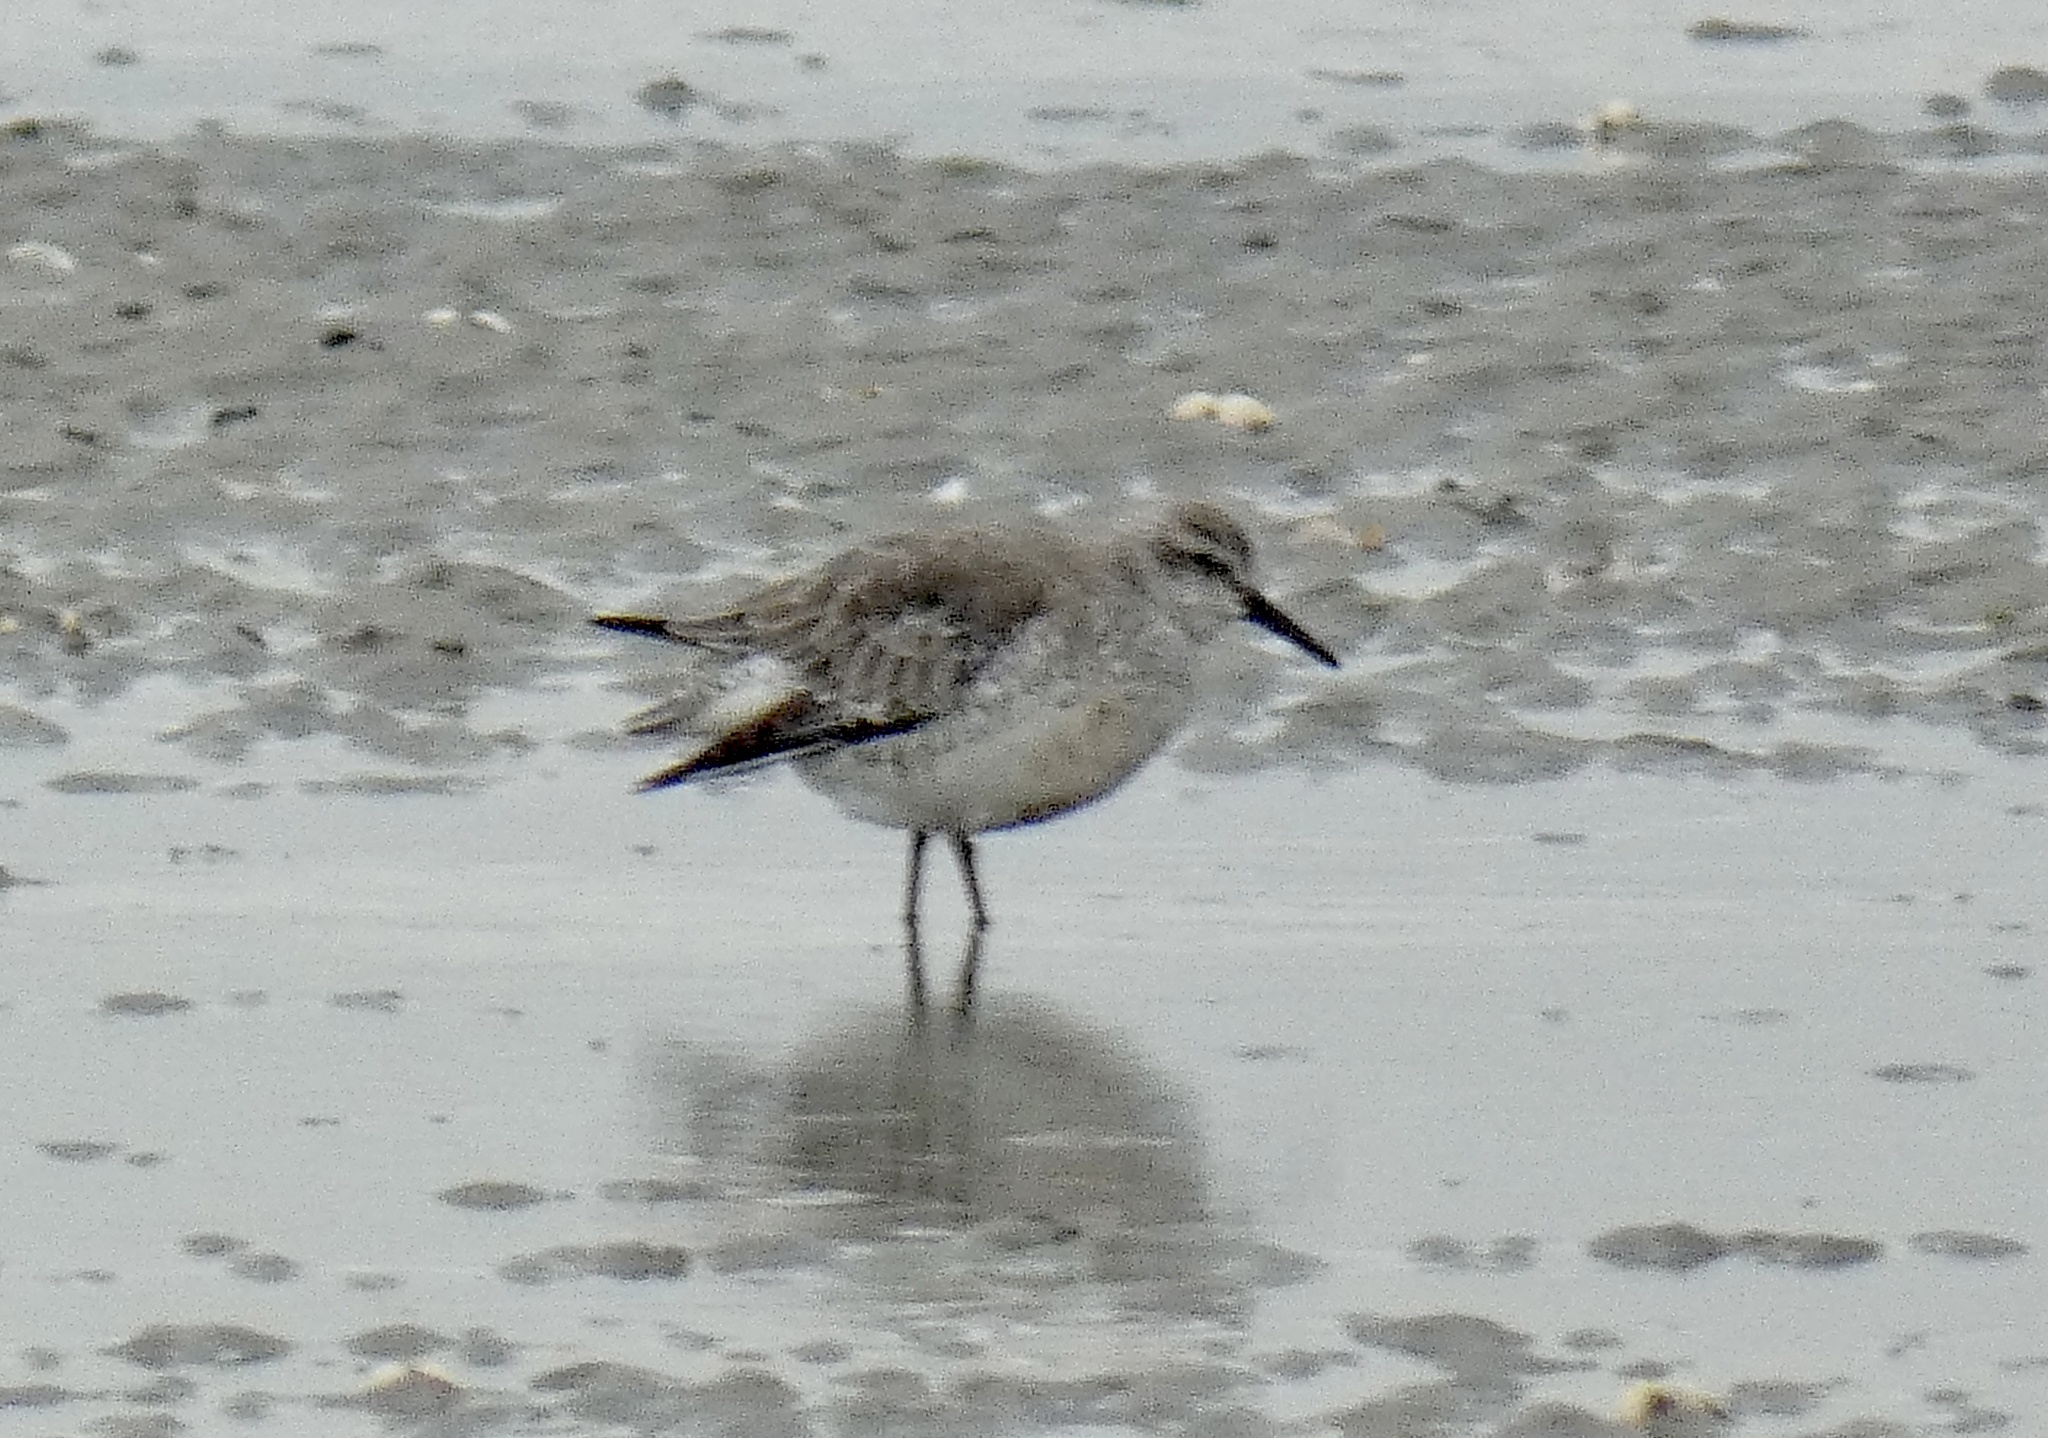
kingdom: Animalia
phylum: Chordata
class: Aves
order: Charadriiformes
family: Scolopacidae
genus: Calidris
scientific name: Calidris canutus
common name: Red knot
